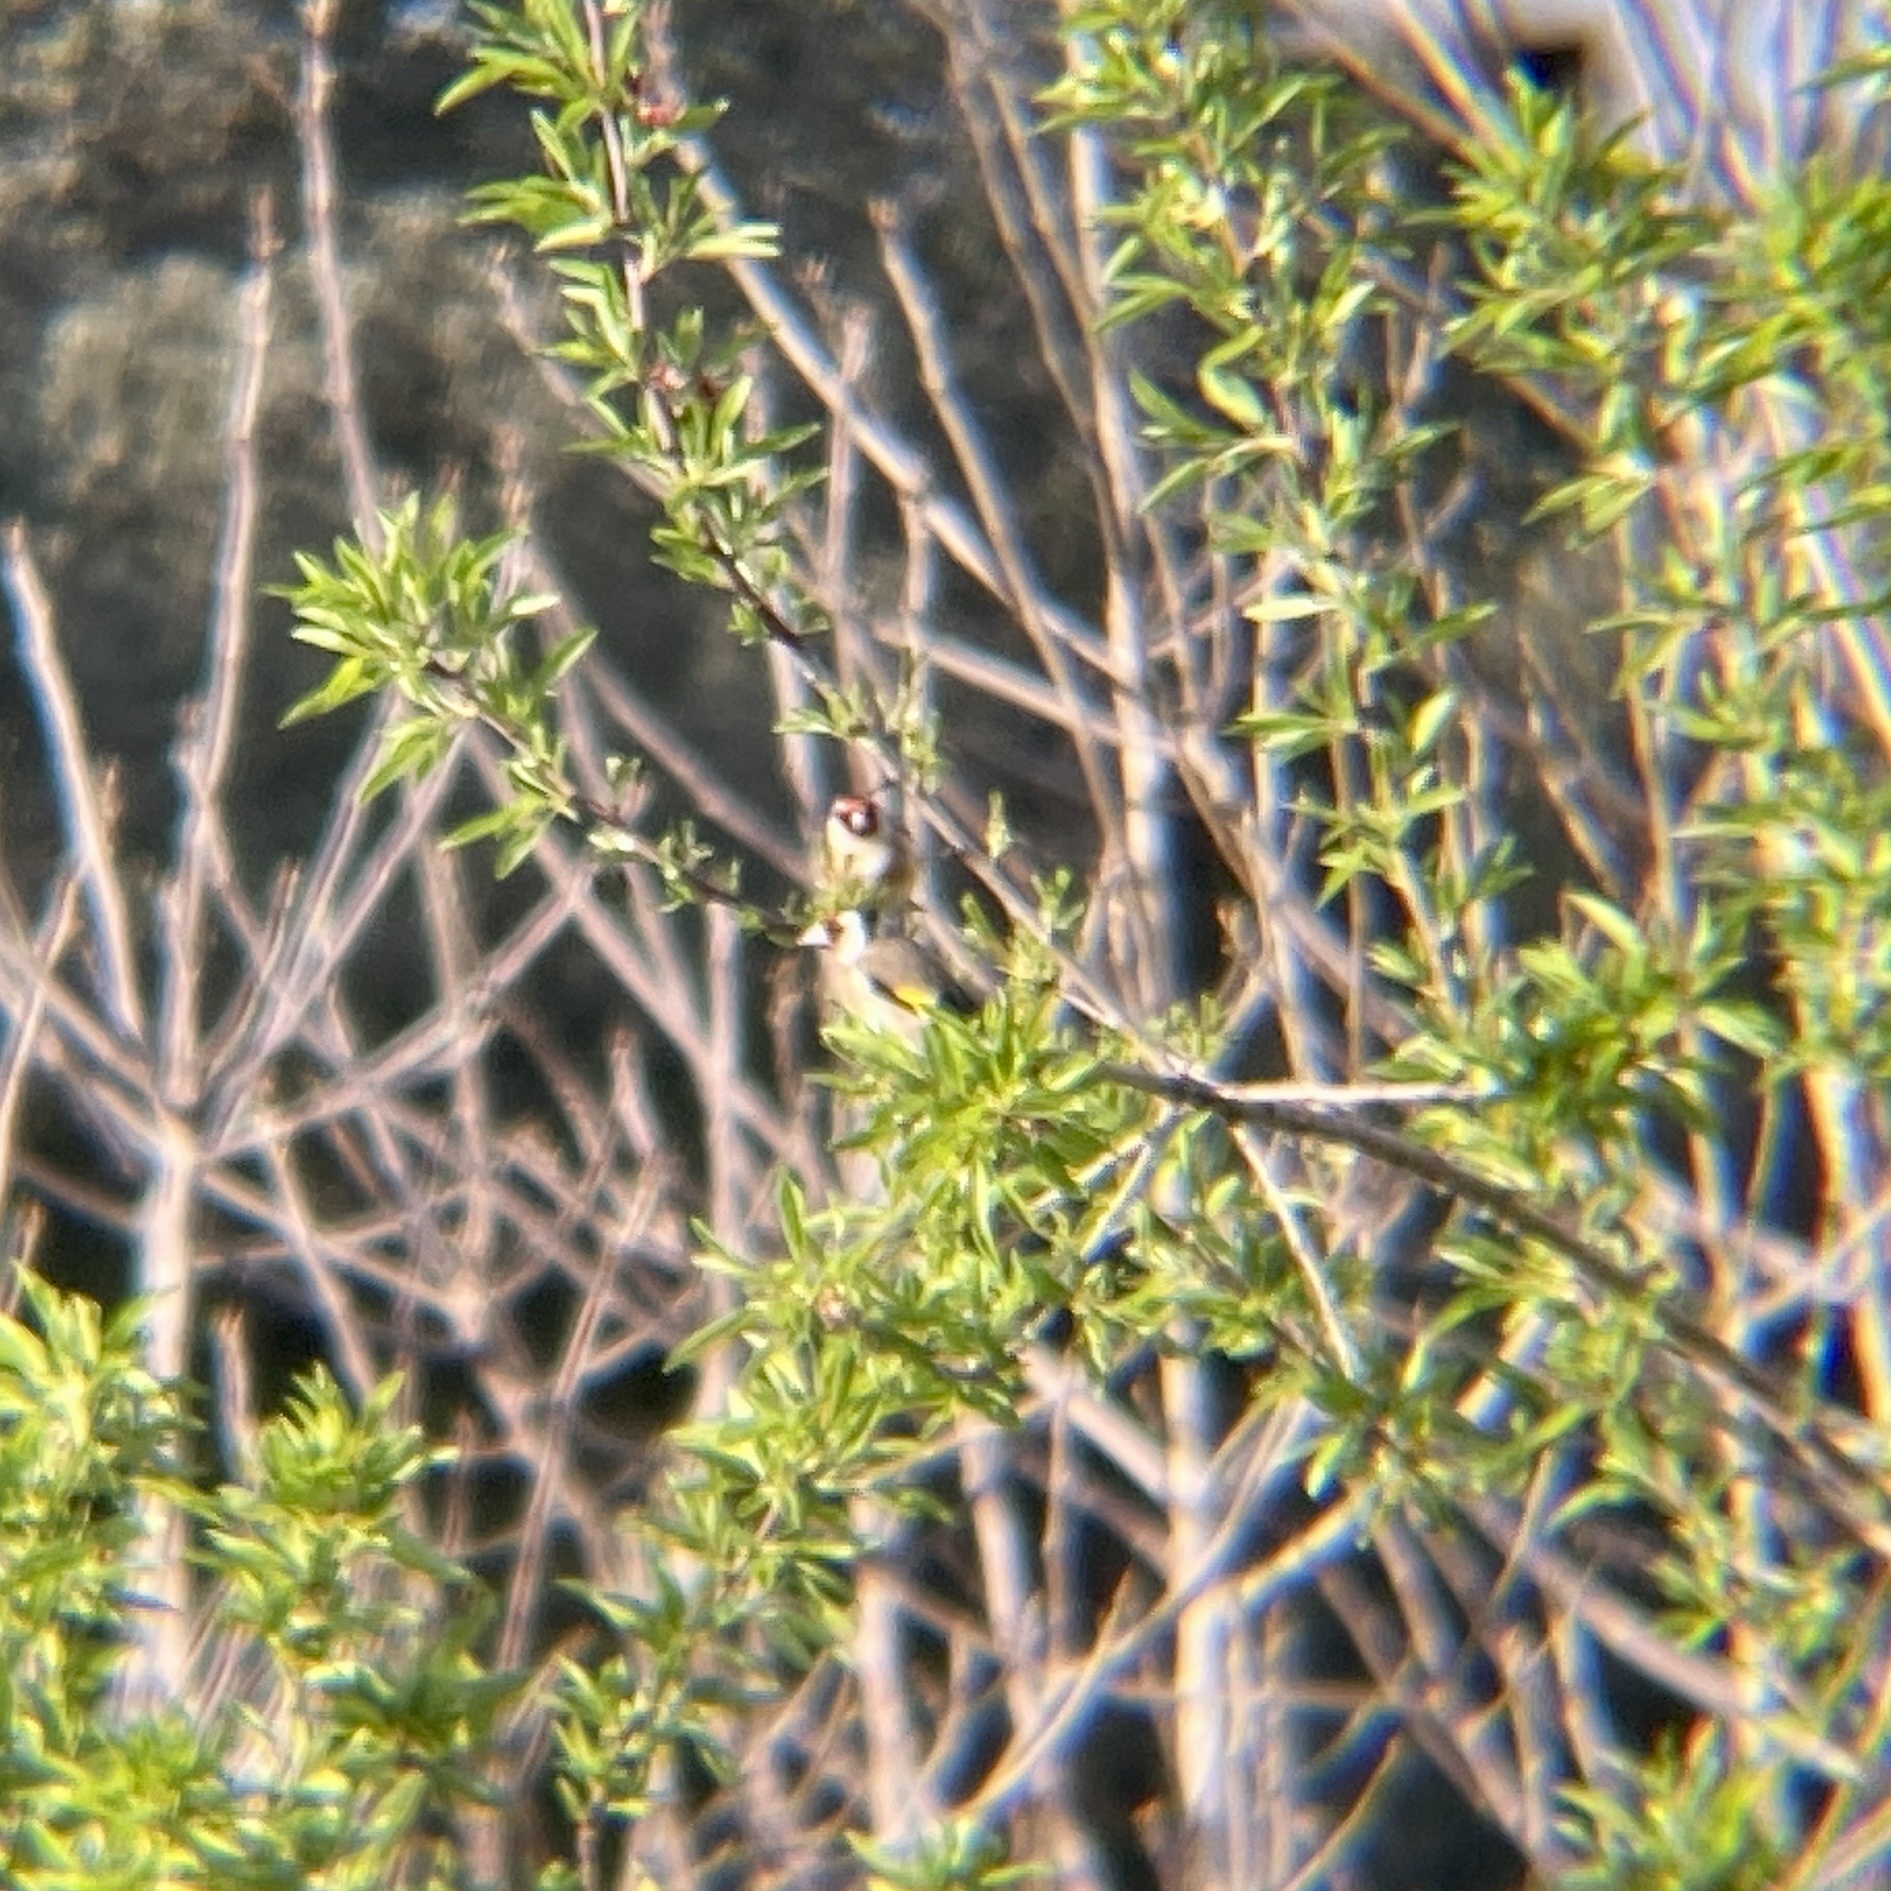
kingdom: Animalia
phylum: Chordata
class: Aves
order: Passeriformes
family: Fringillidae
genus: Carduelis
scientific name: Carduelis carduelis
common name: European goldfinch
